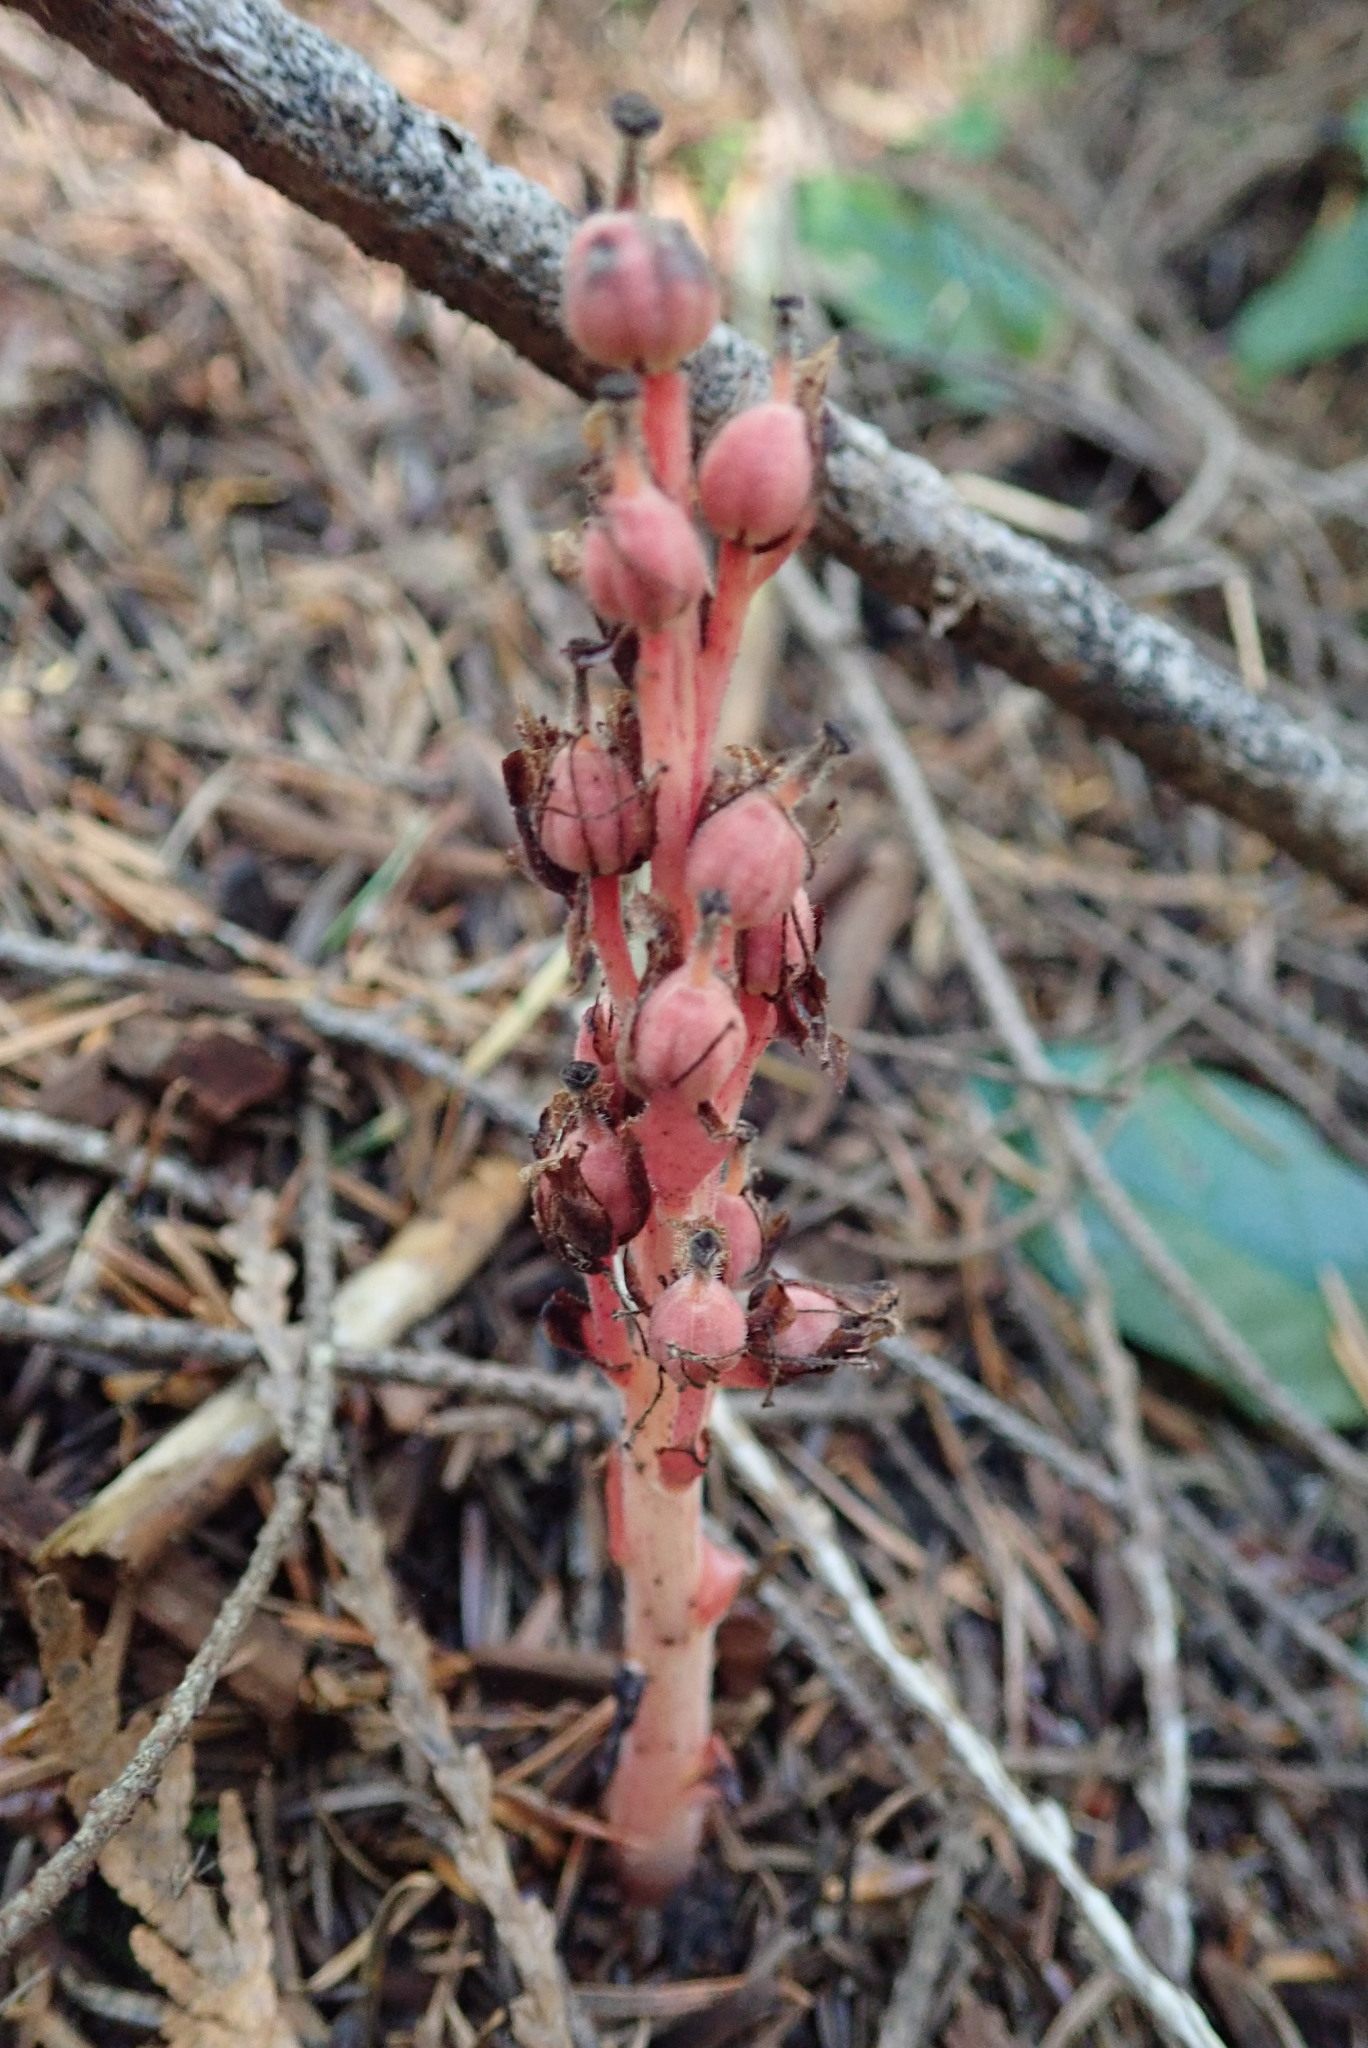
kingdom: Plantae
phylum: Tracheophyta
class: Magnoliopsida
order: Ericales
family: Ericaceae
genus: Hypopitys
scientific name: Hypopitys monotropa
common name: Yellow bird's-nest
